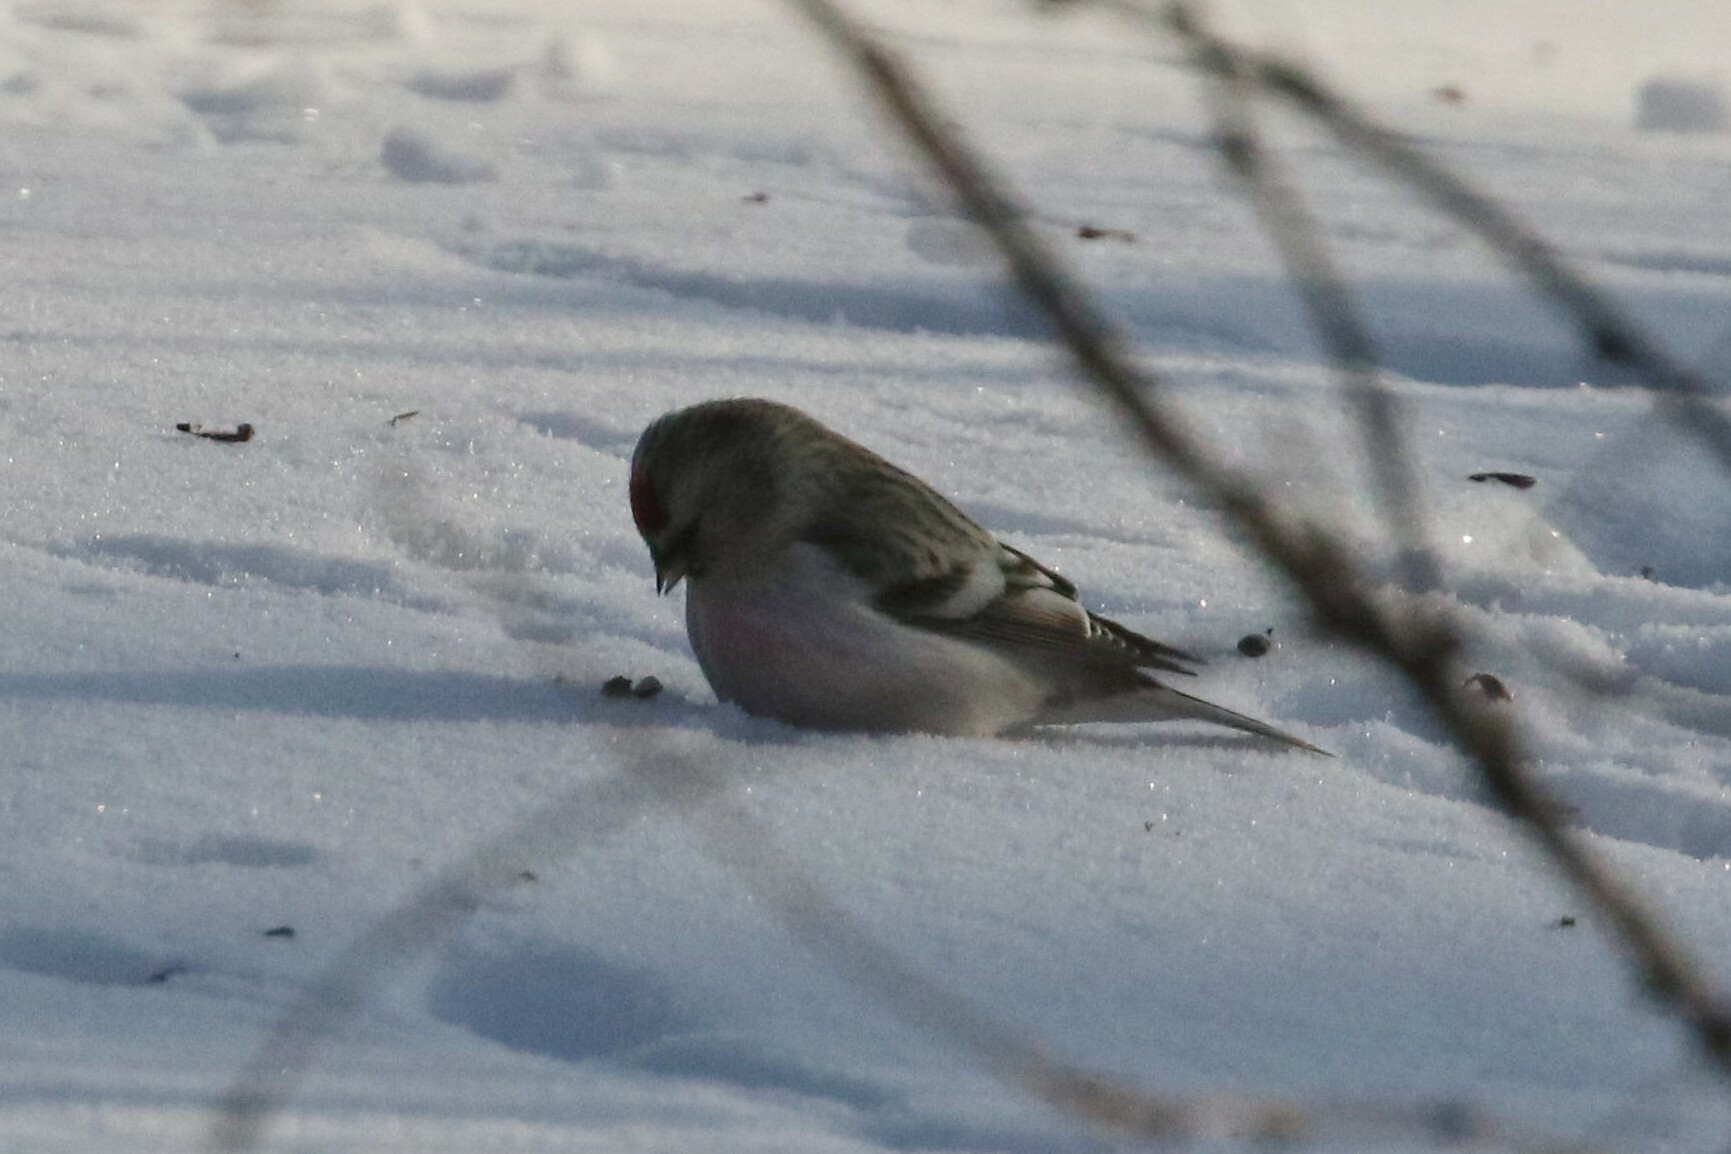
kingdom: Animalia
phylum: Chordata
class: Aves
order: Passeriformes
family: Fringillidae
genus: Acanthis
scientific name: Acanthis hornemanni
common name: Arctic redpoll
